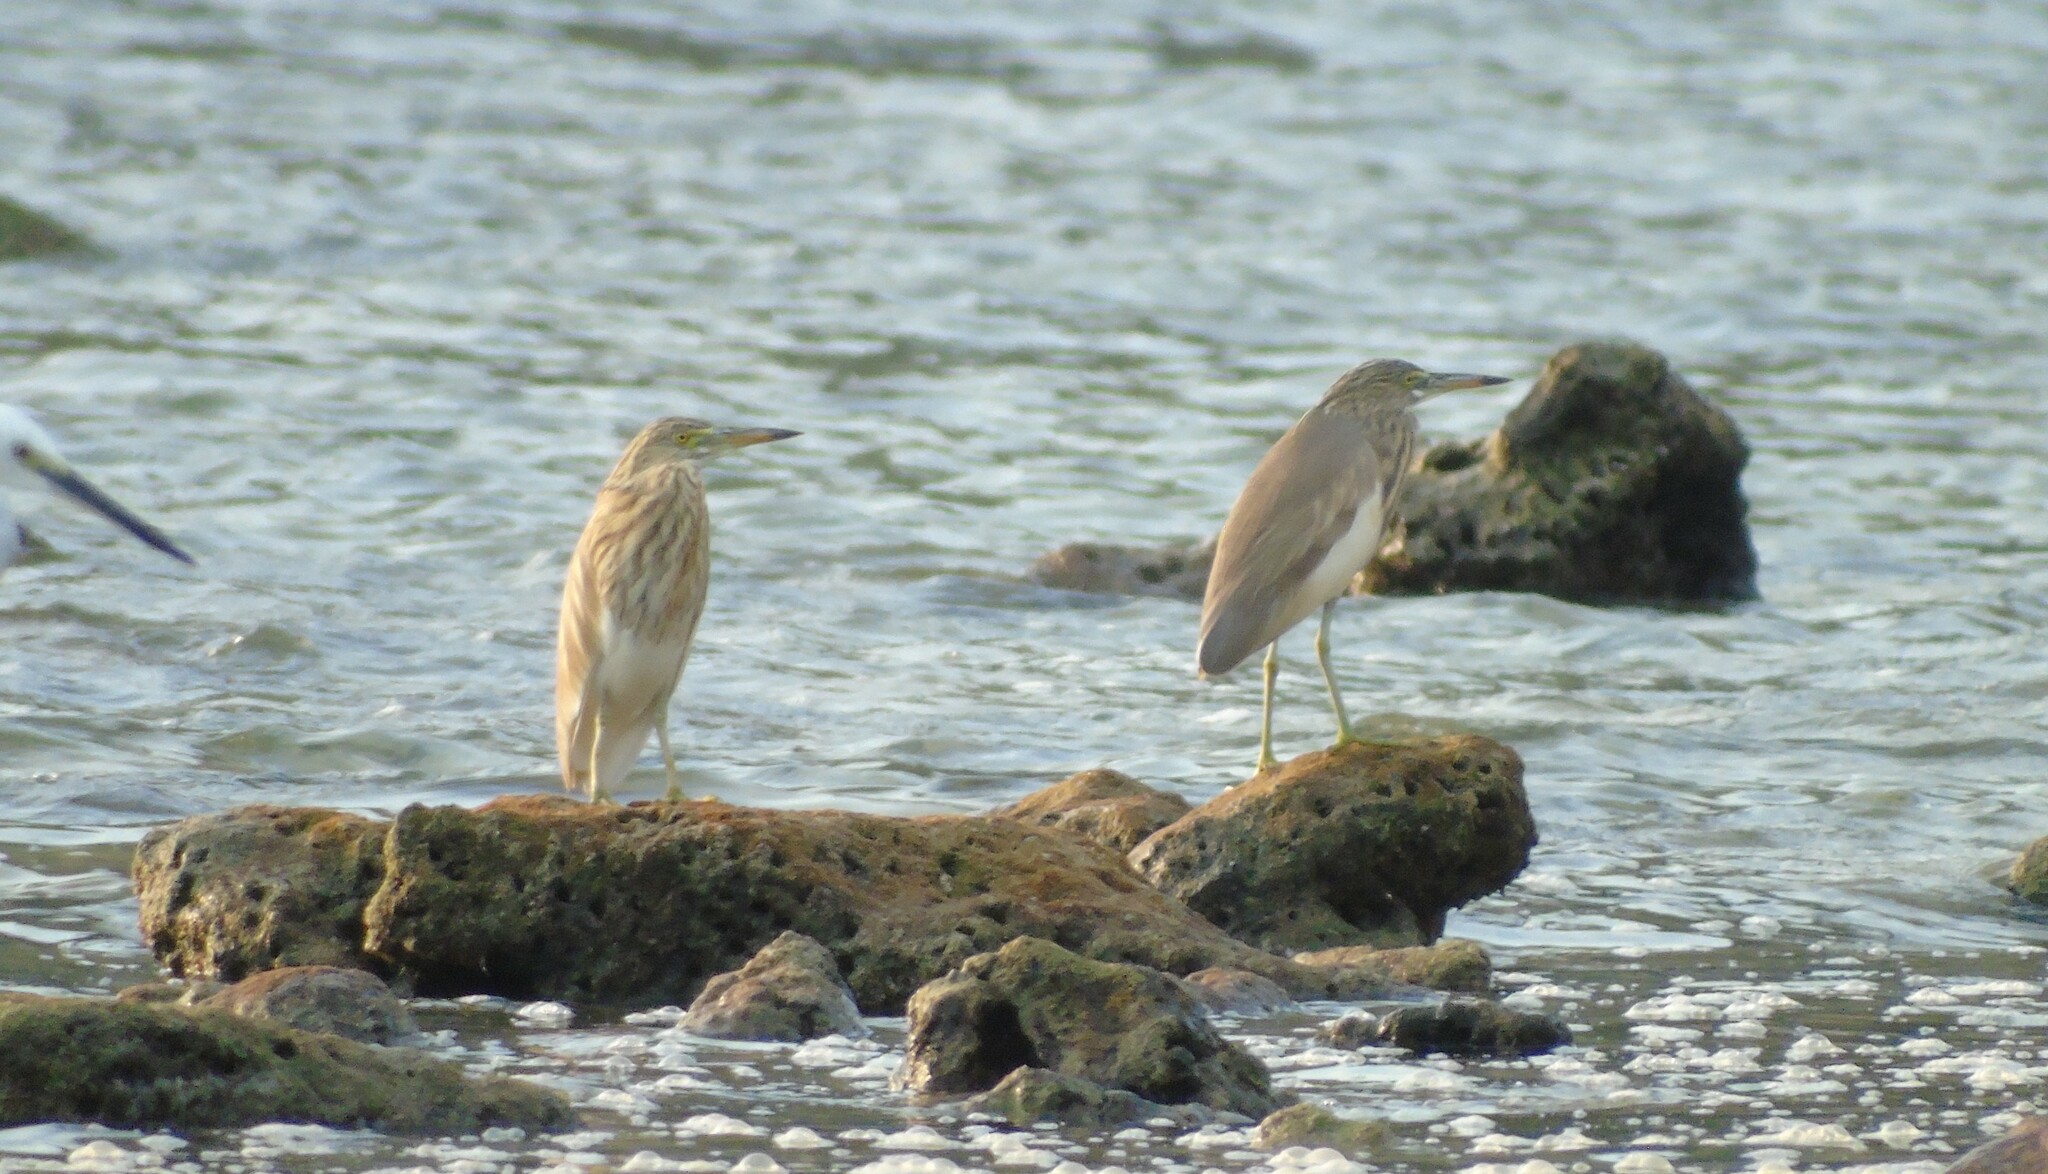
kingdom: Animalia
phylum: Chordata
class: Aves
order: Pelecaniformes
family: Ardeidae
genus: Ardeola
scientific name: Ardeola
